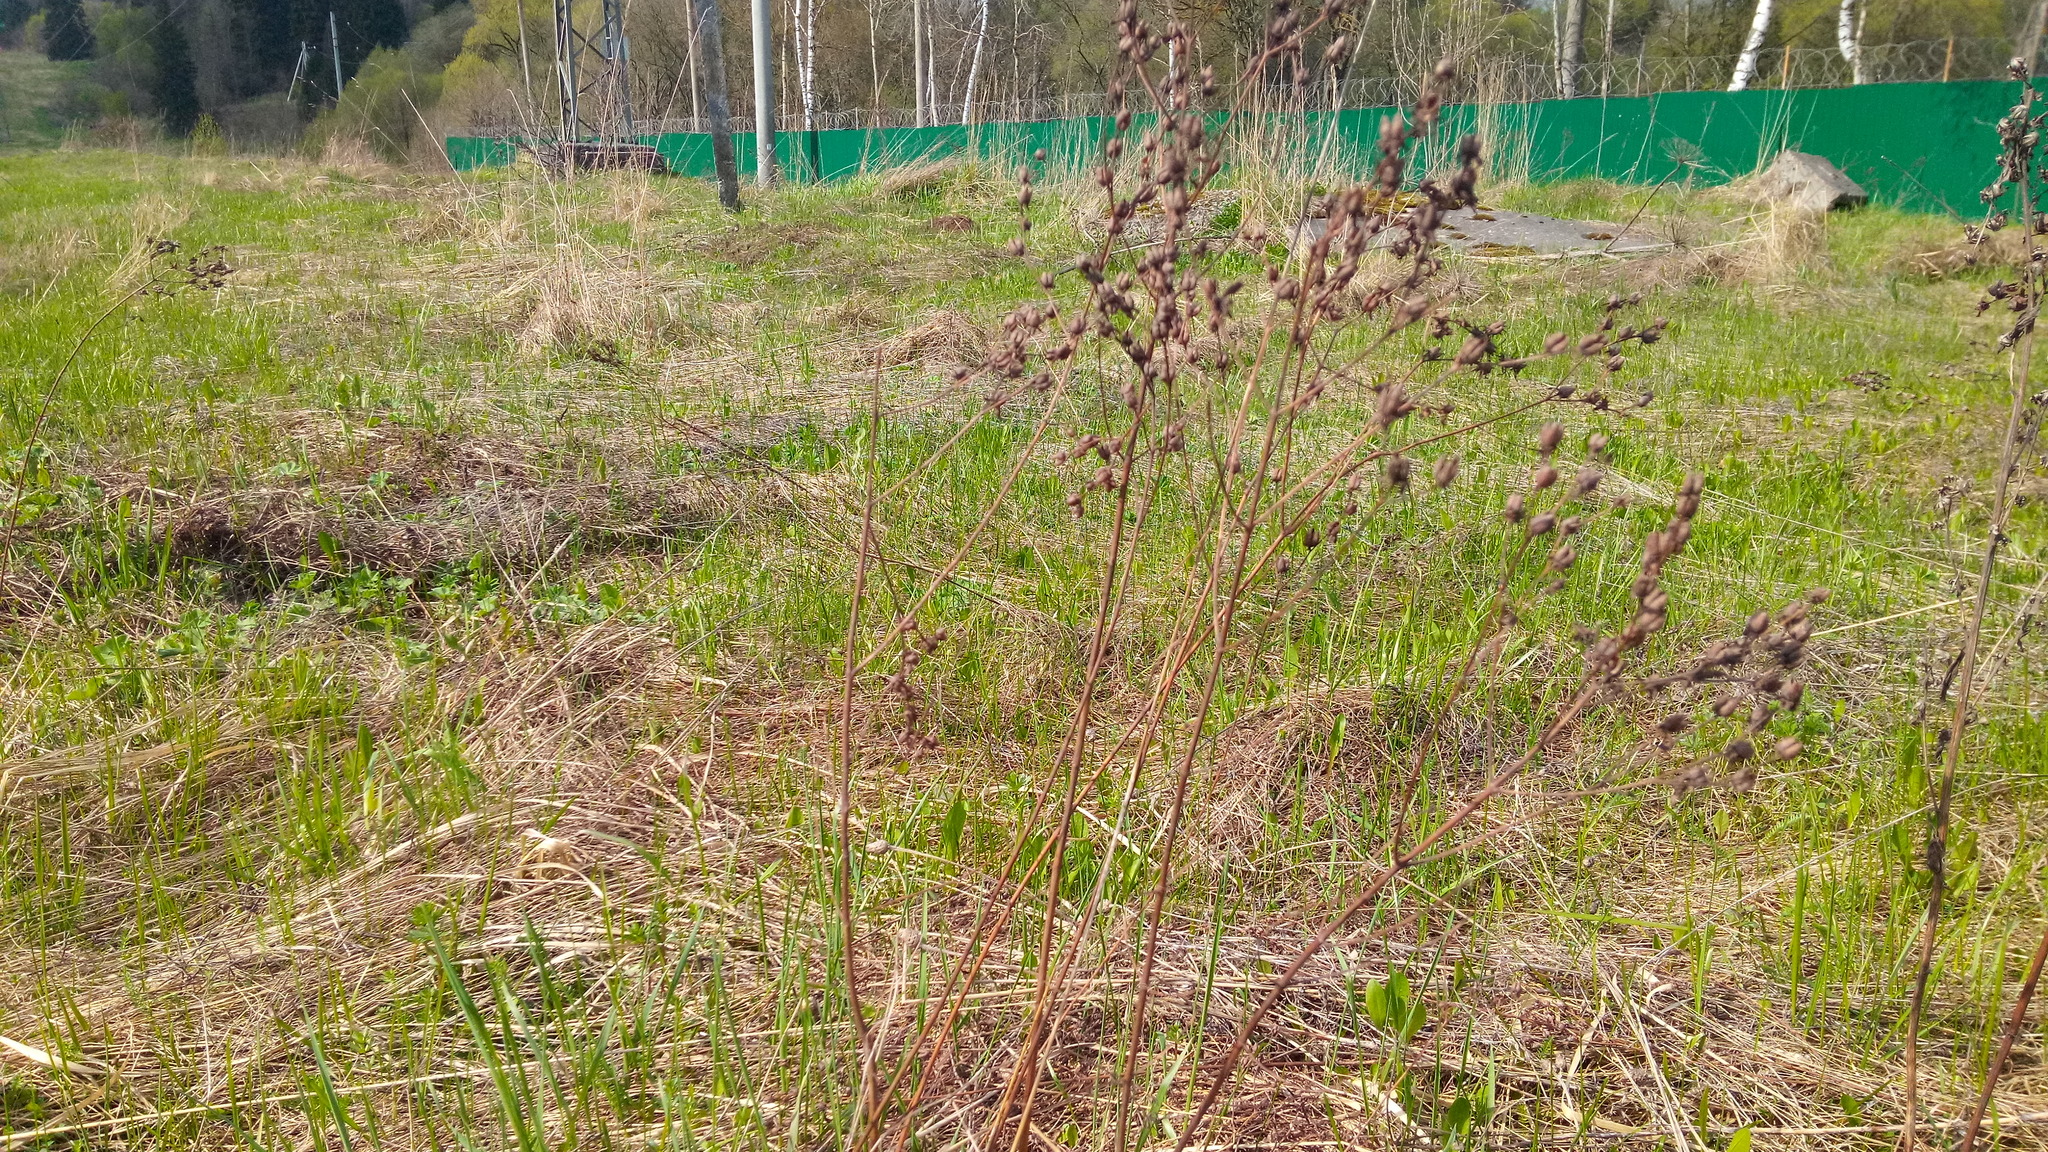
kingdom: Plantae
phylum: Tracheophyta
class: Magnoliopsida
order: Malpighiales
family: Hypericaceae
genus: Hypericum
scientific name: Hypericum perforatum
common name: Common st. johnswort
